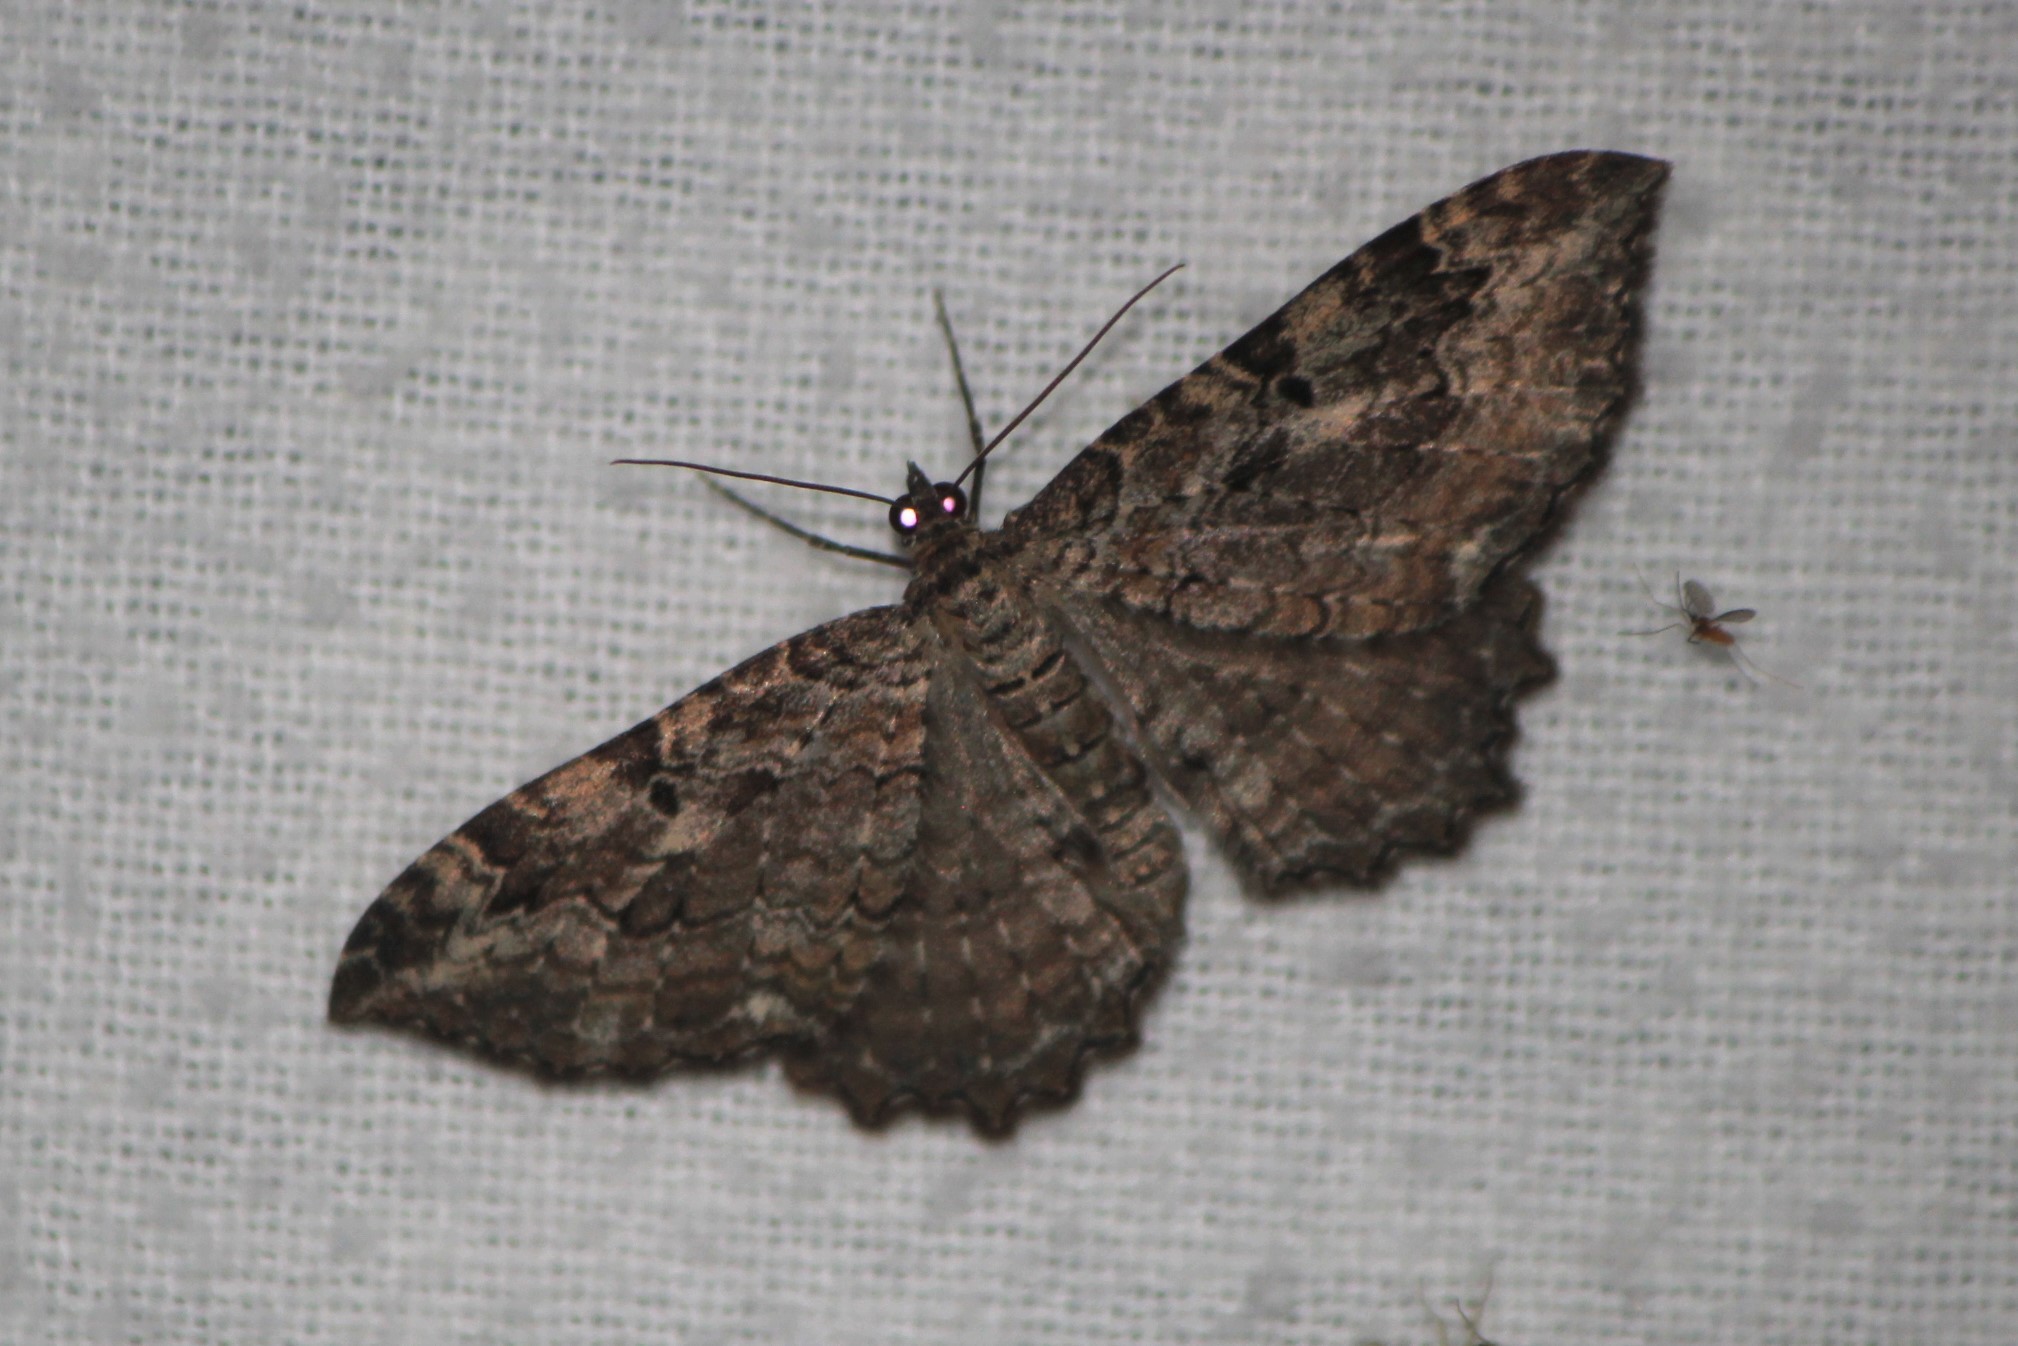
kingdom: Animalia
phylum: Arthropoda
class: Insecta
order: Lepidoptera
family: Geometridae
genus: Rheumaptera
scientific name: Rheumaptera
